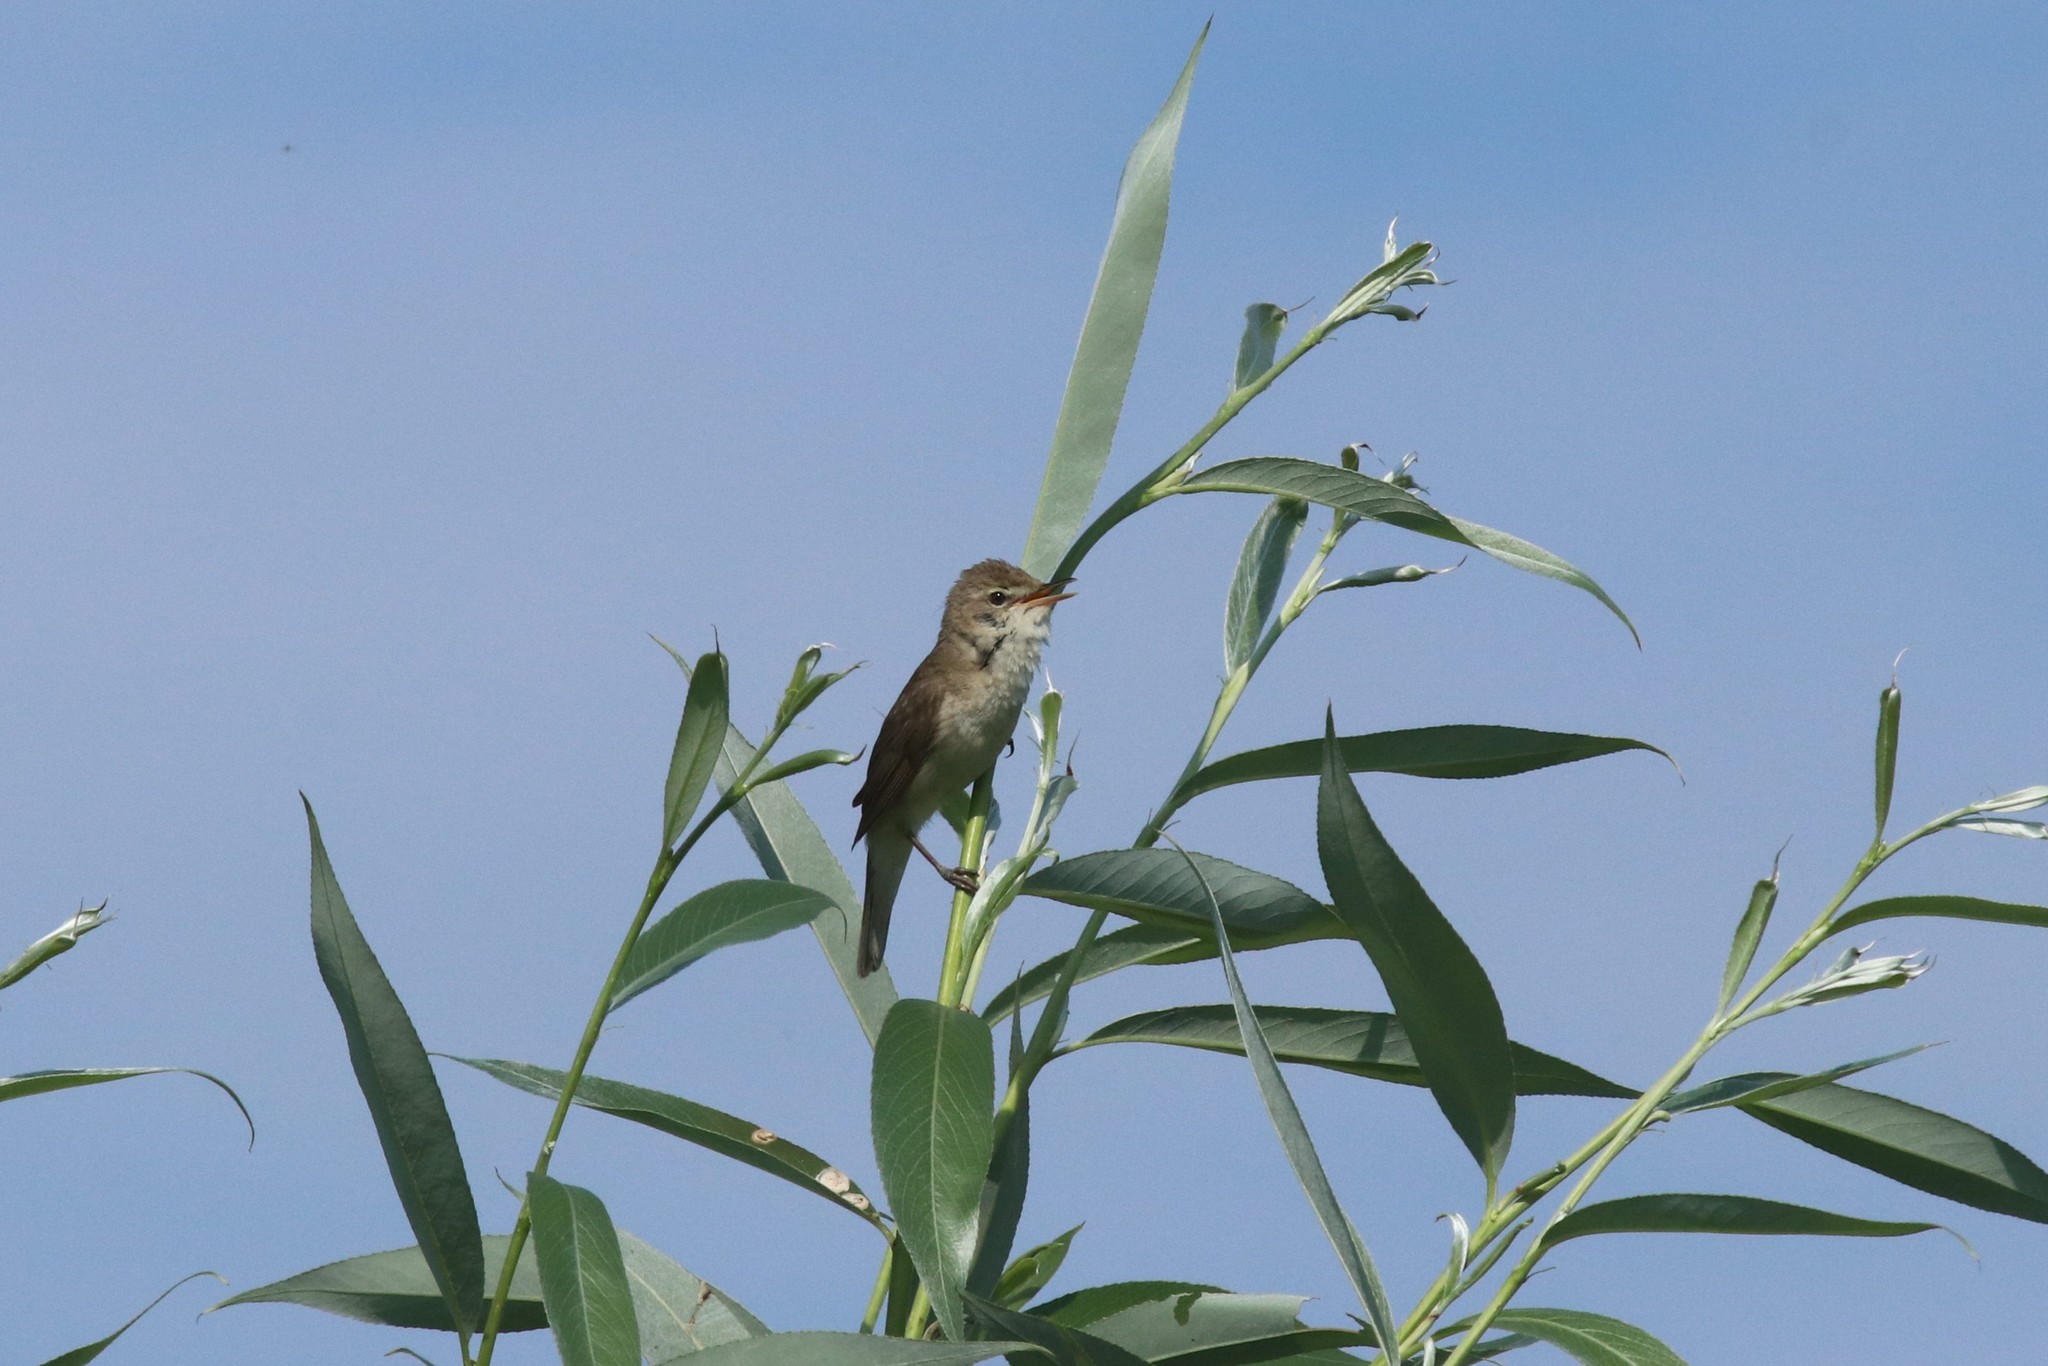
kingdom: Animalia
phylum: Chordata
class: Aves
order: Passeriformes
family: Acrocephalidae
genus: Acrocephalus
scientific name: Acrocephalus dumetorum
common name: Blyth's reed warbler
